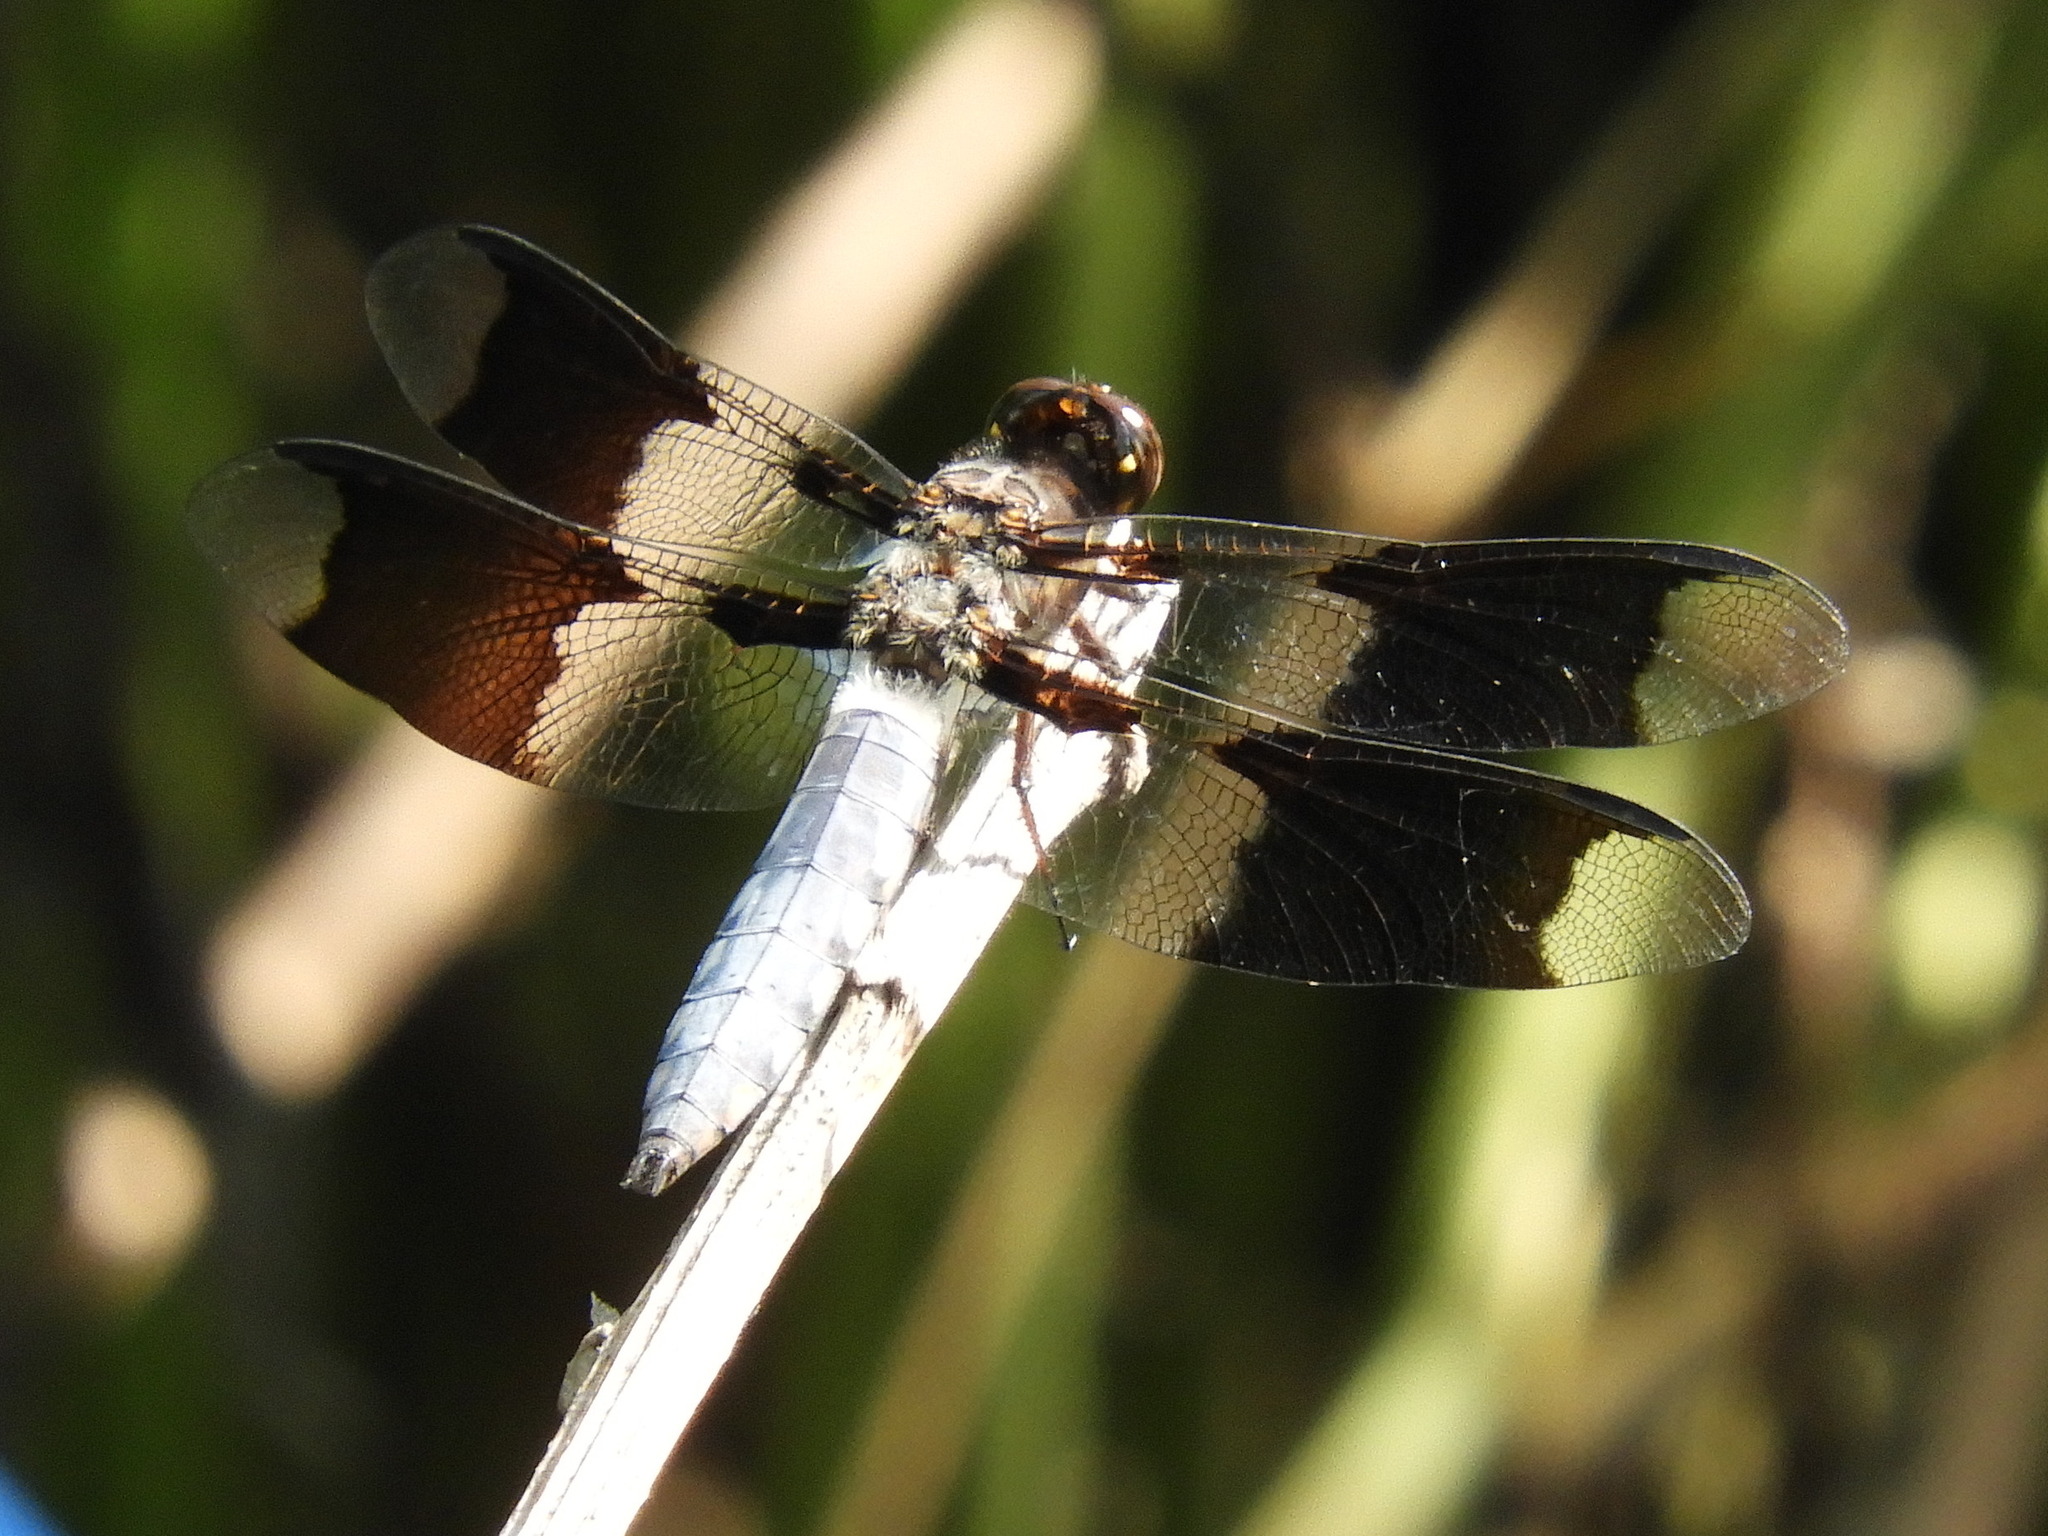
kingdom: Animalia
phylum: Arthropoda
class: Insecta
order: Odonata
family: Libellulidae
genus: Plathemis
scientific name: Plathemis lydia
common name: Common whitetail
